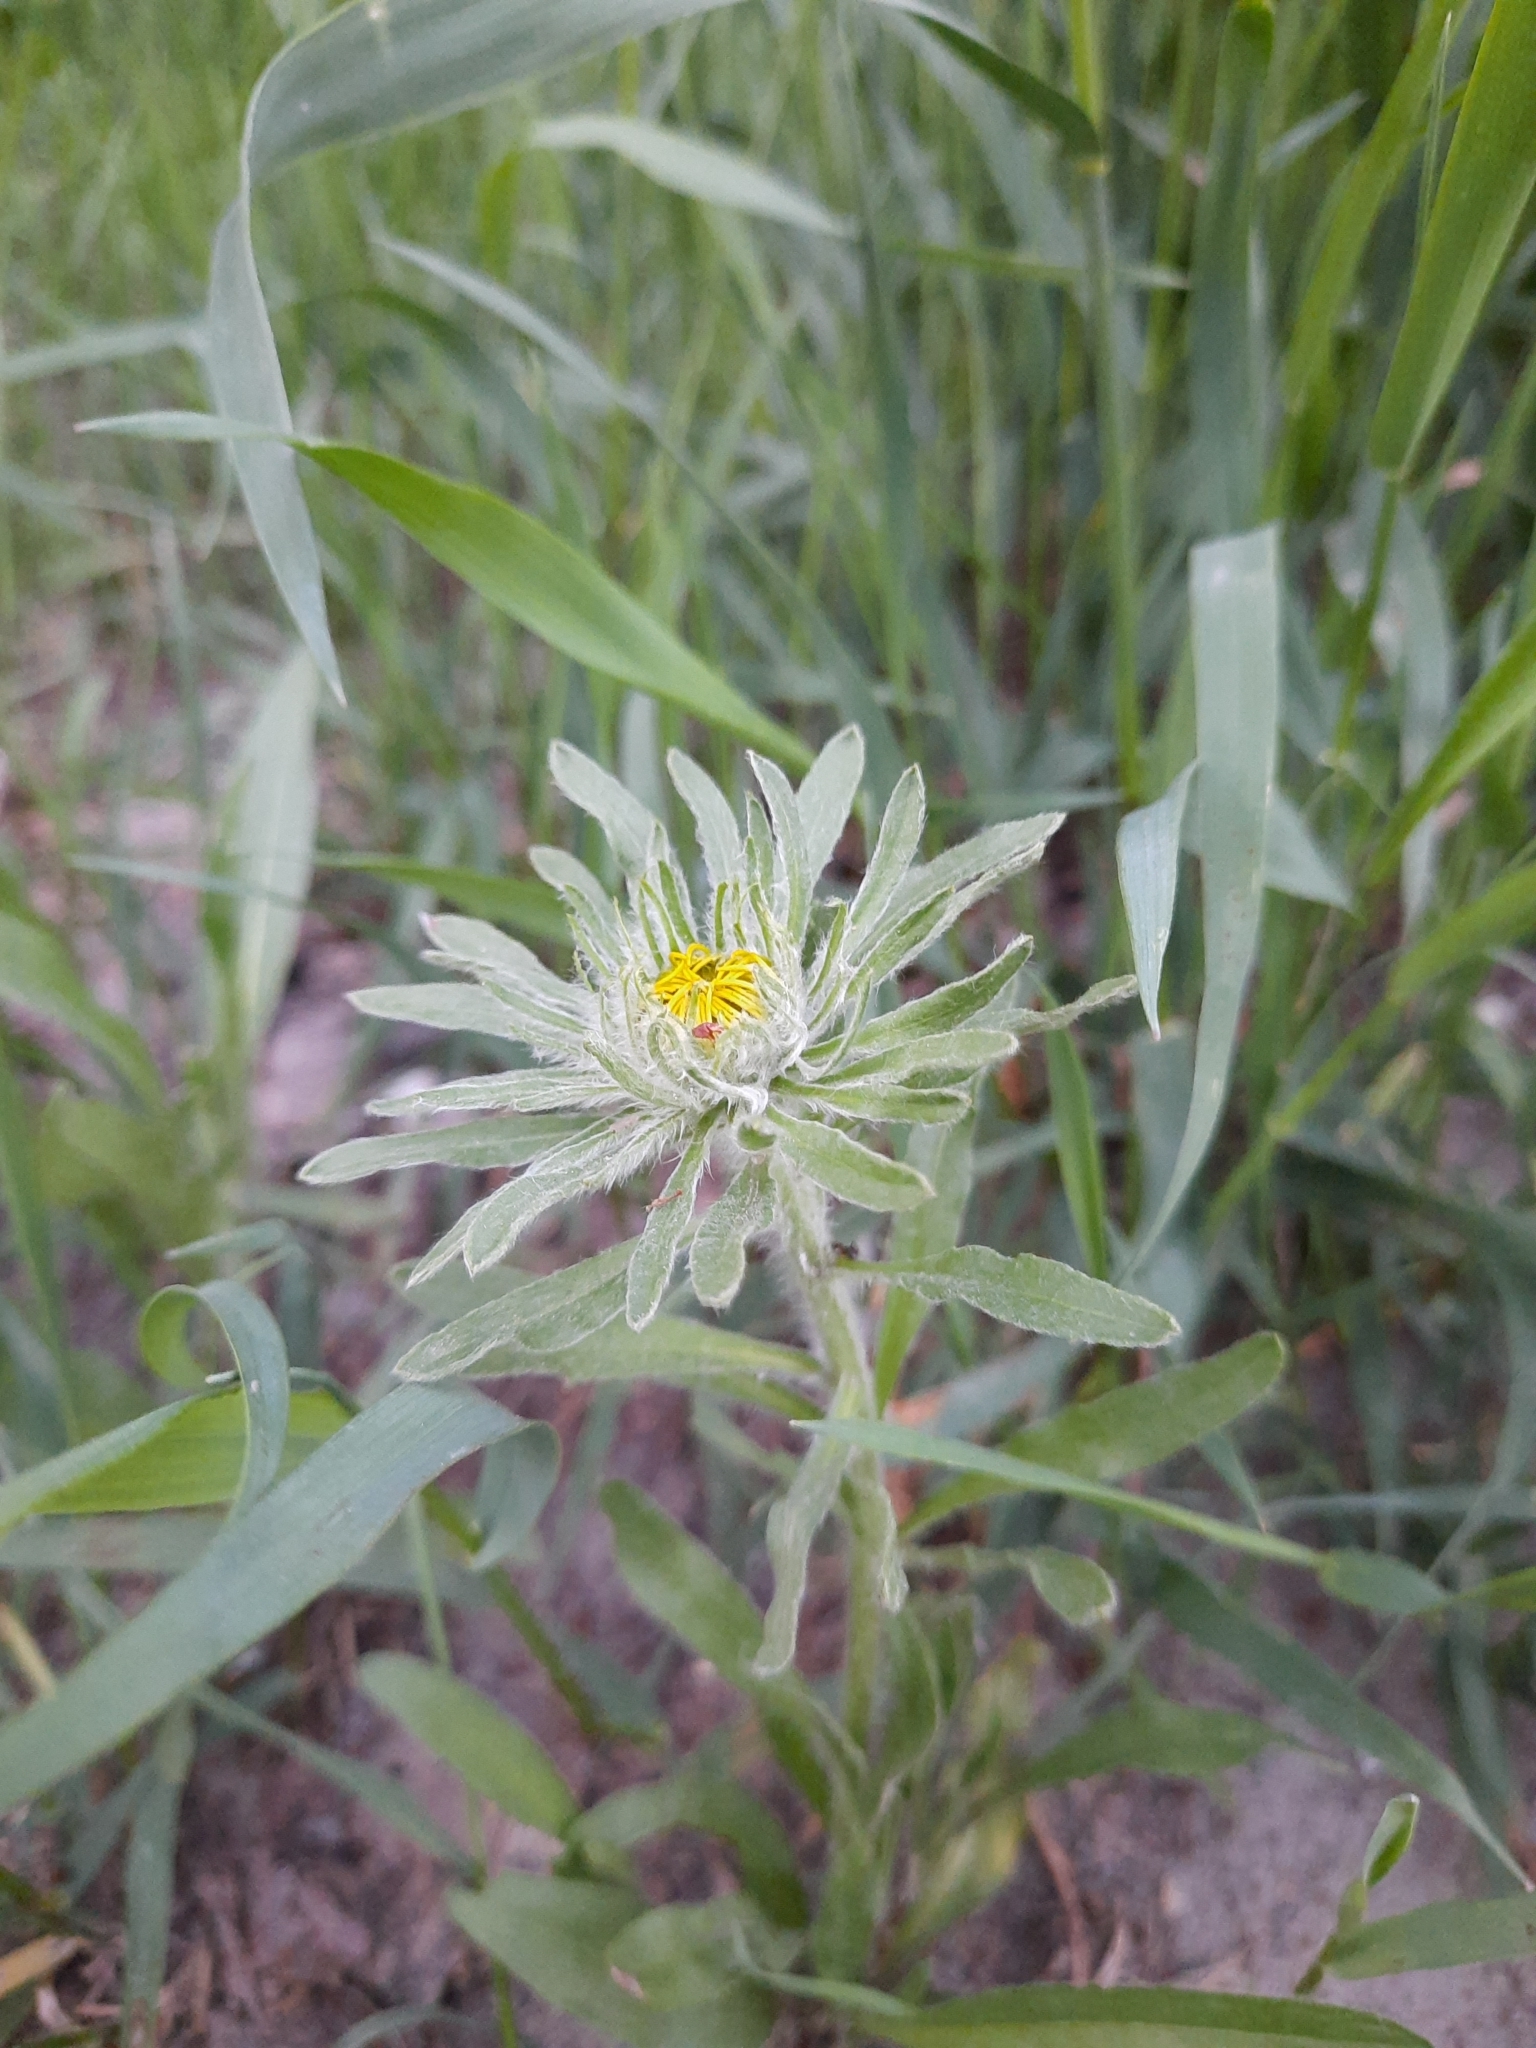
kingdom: Plantae
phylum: Tracheophyta
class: Magnoliopsida
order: Asterales
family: Asteraceae
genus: Pentanema
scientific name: Pentanema britannicum
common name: British elecampane
